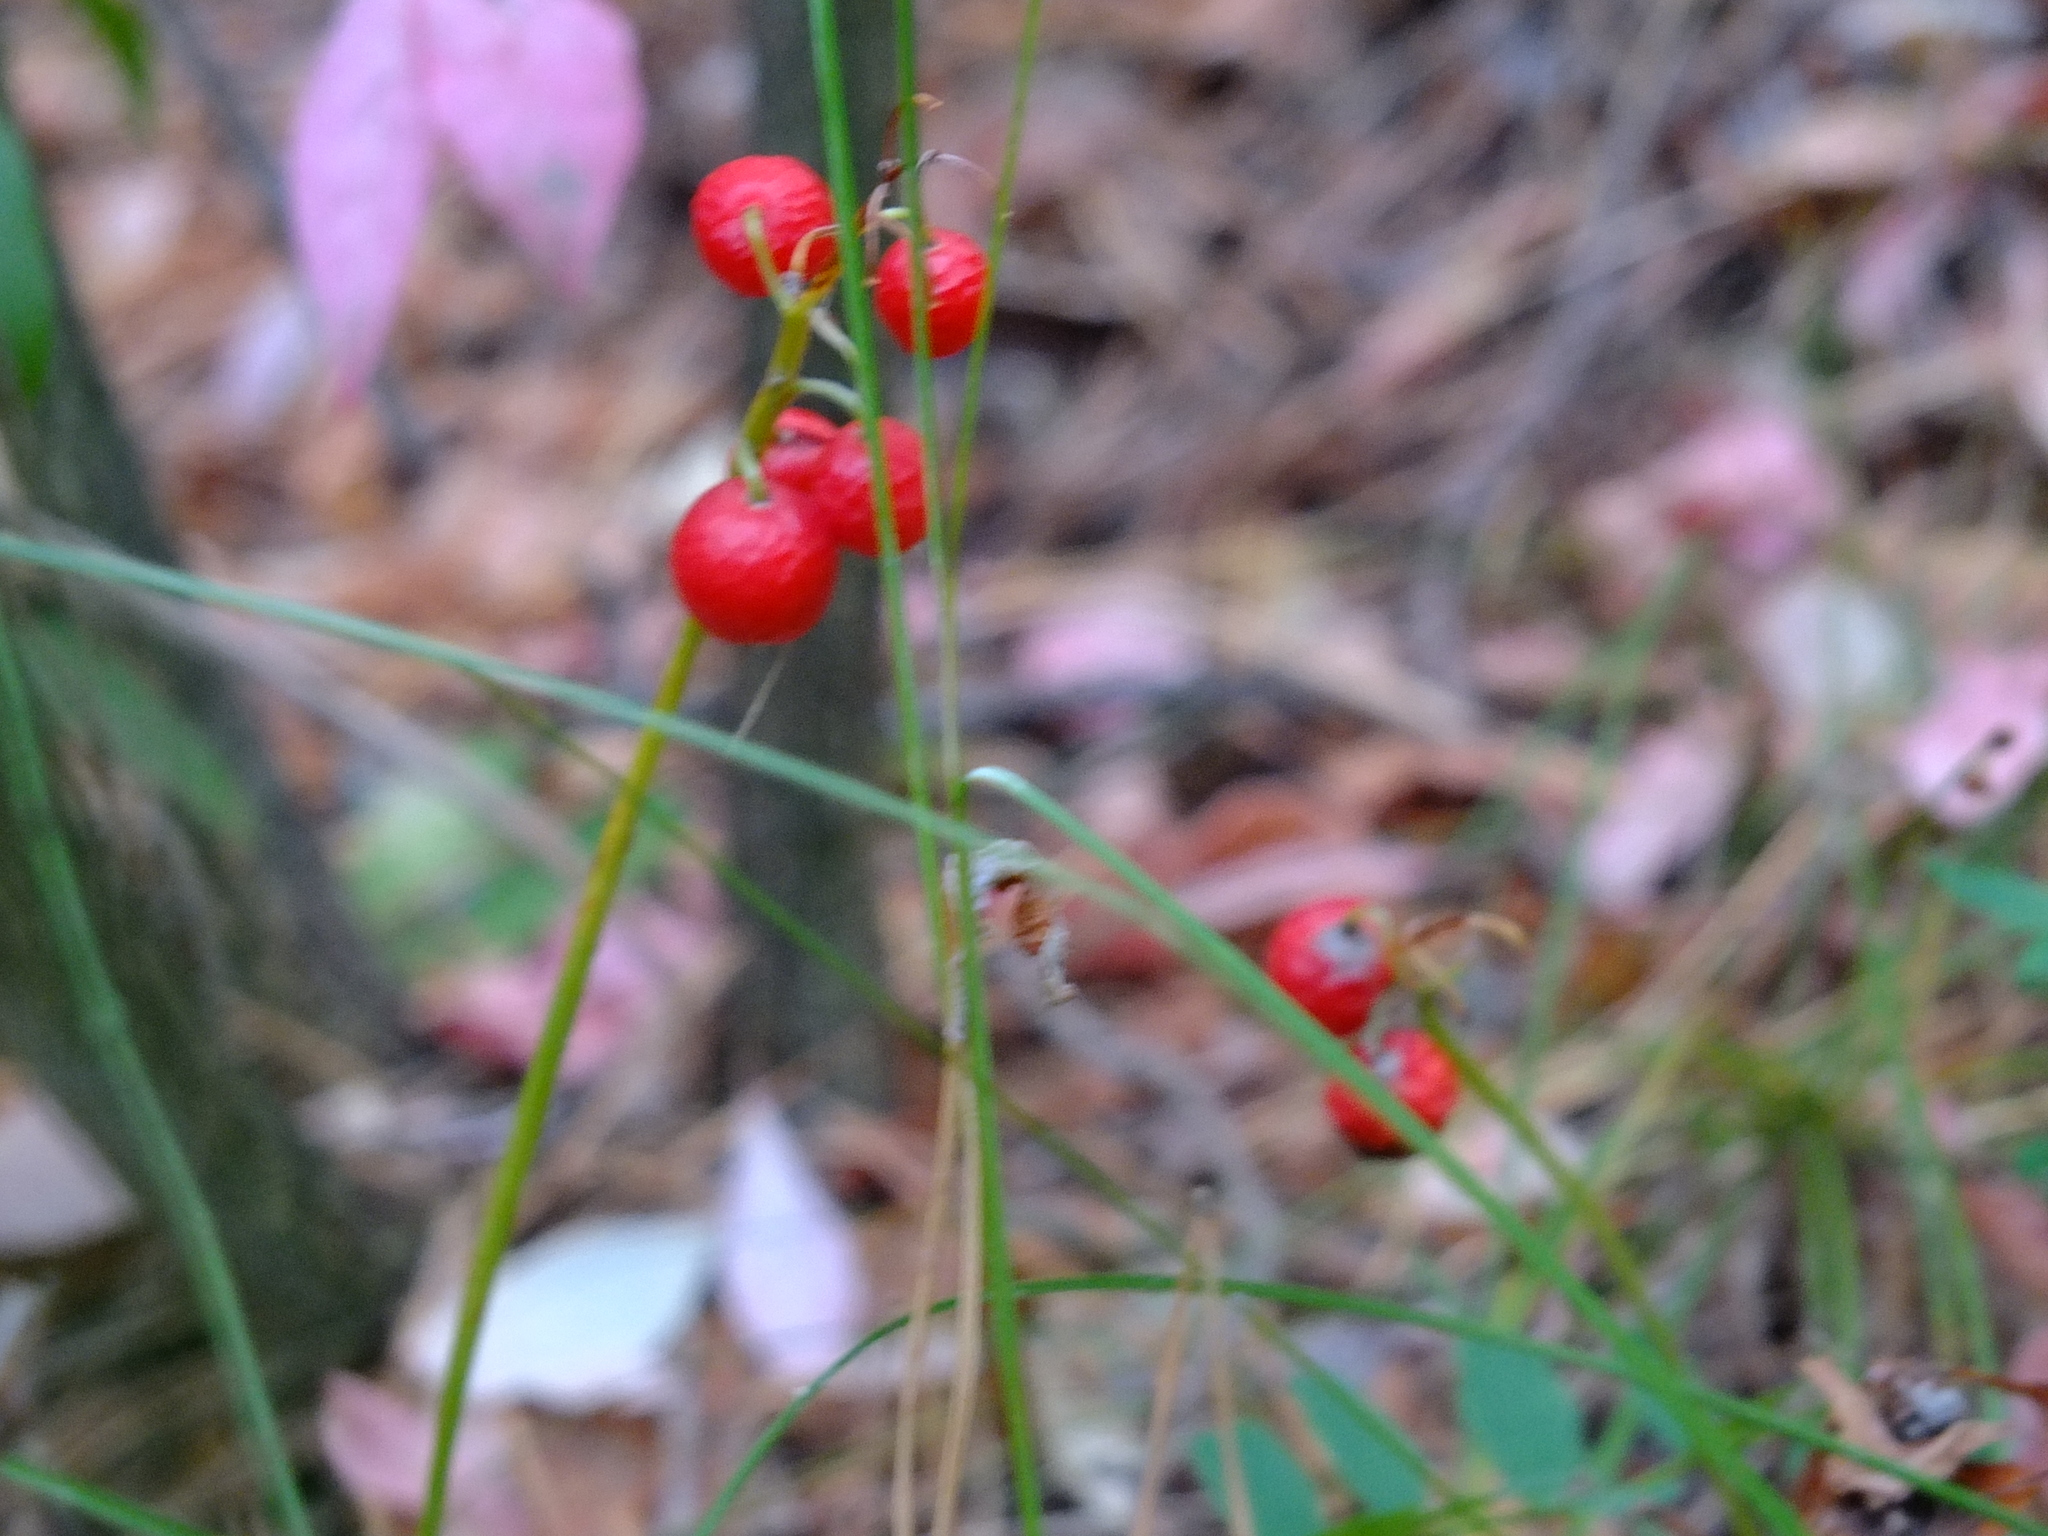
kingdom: Plantae
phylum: Tracheophyta
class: Liliopsida
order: Asparagales
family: Asparagaceae
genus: Convallaria
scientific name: Convallaria majalis
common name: Lily-of-the-valley
